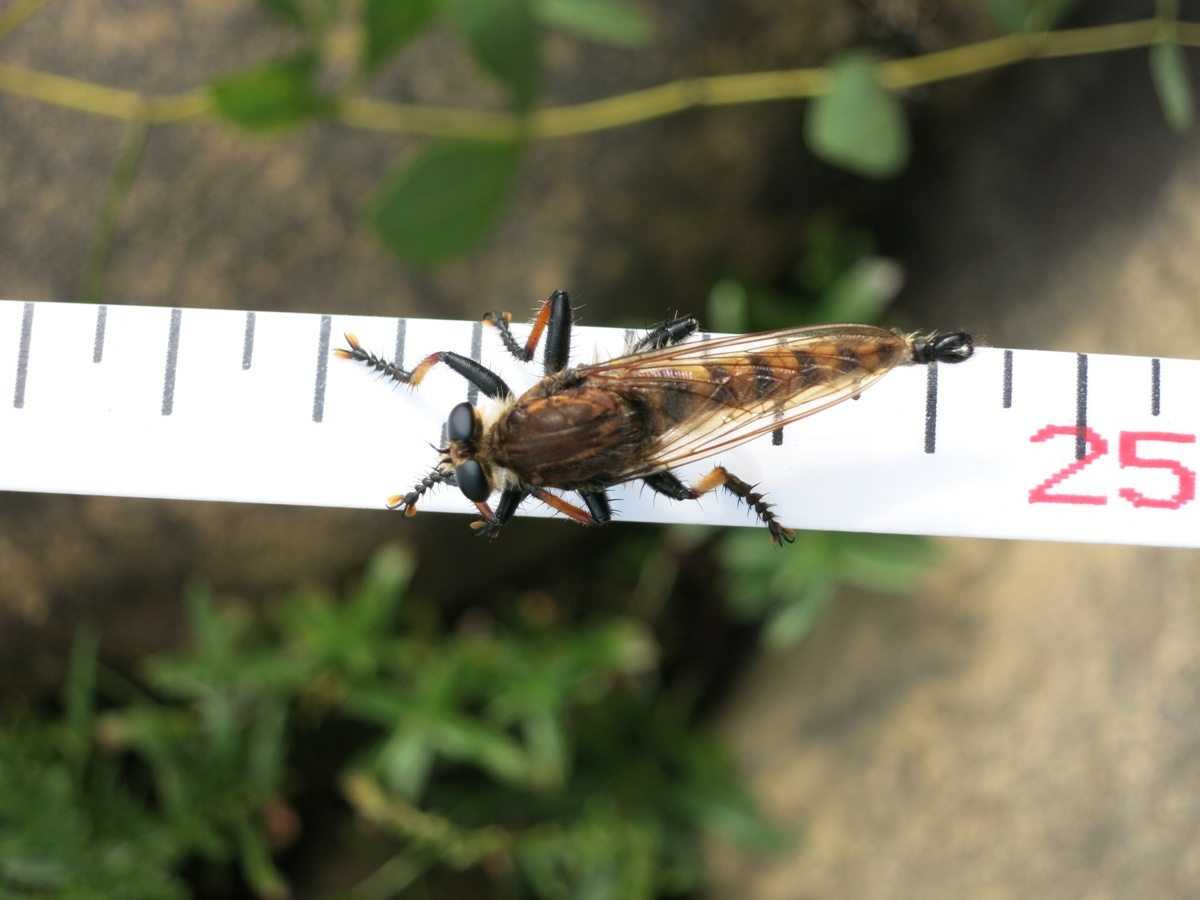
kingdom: Animalia
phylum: Arthropoda
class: Insecta
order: Diptera
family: Asilidae
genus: Promachus
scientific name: Promachus rufipes
